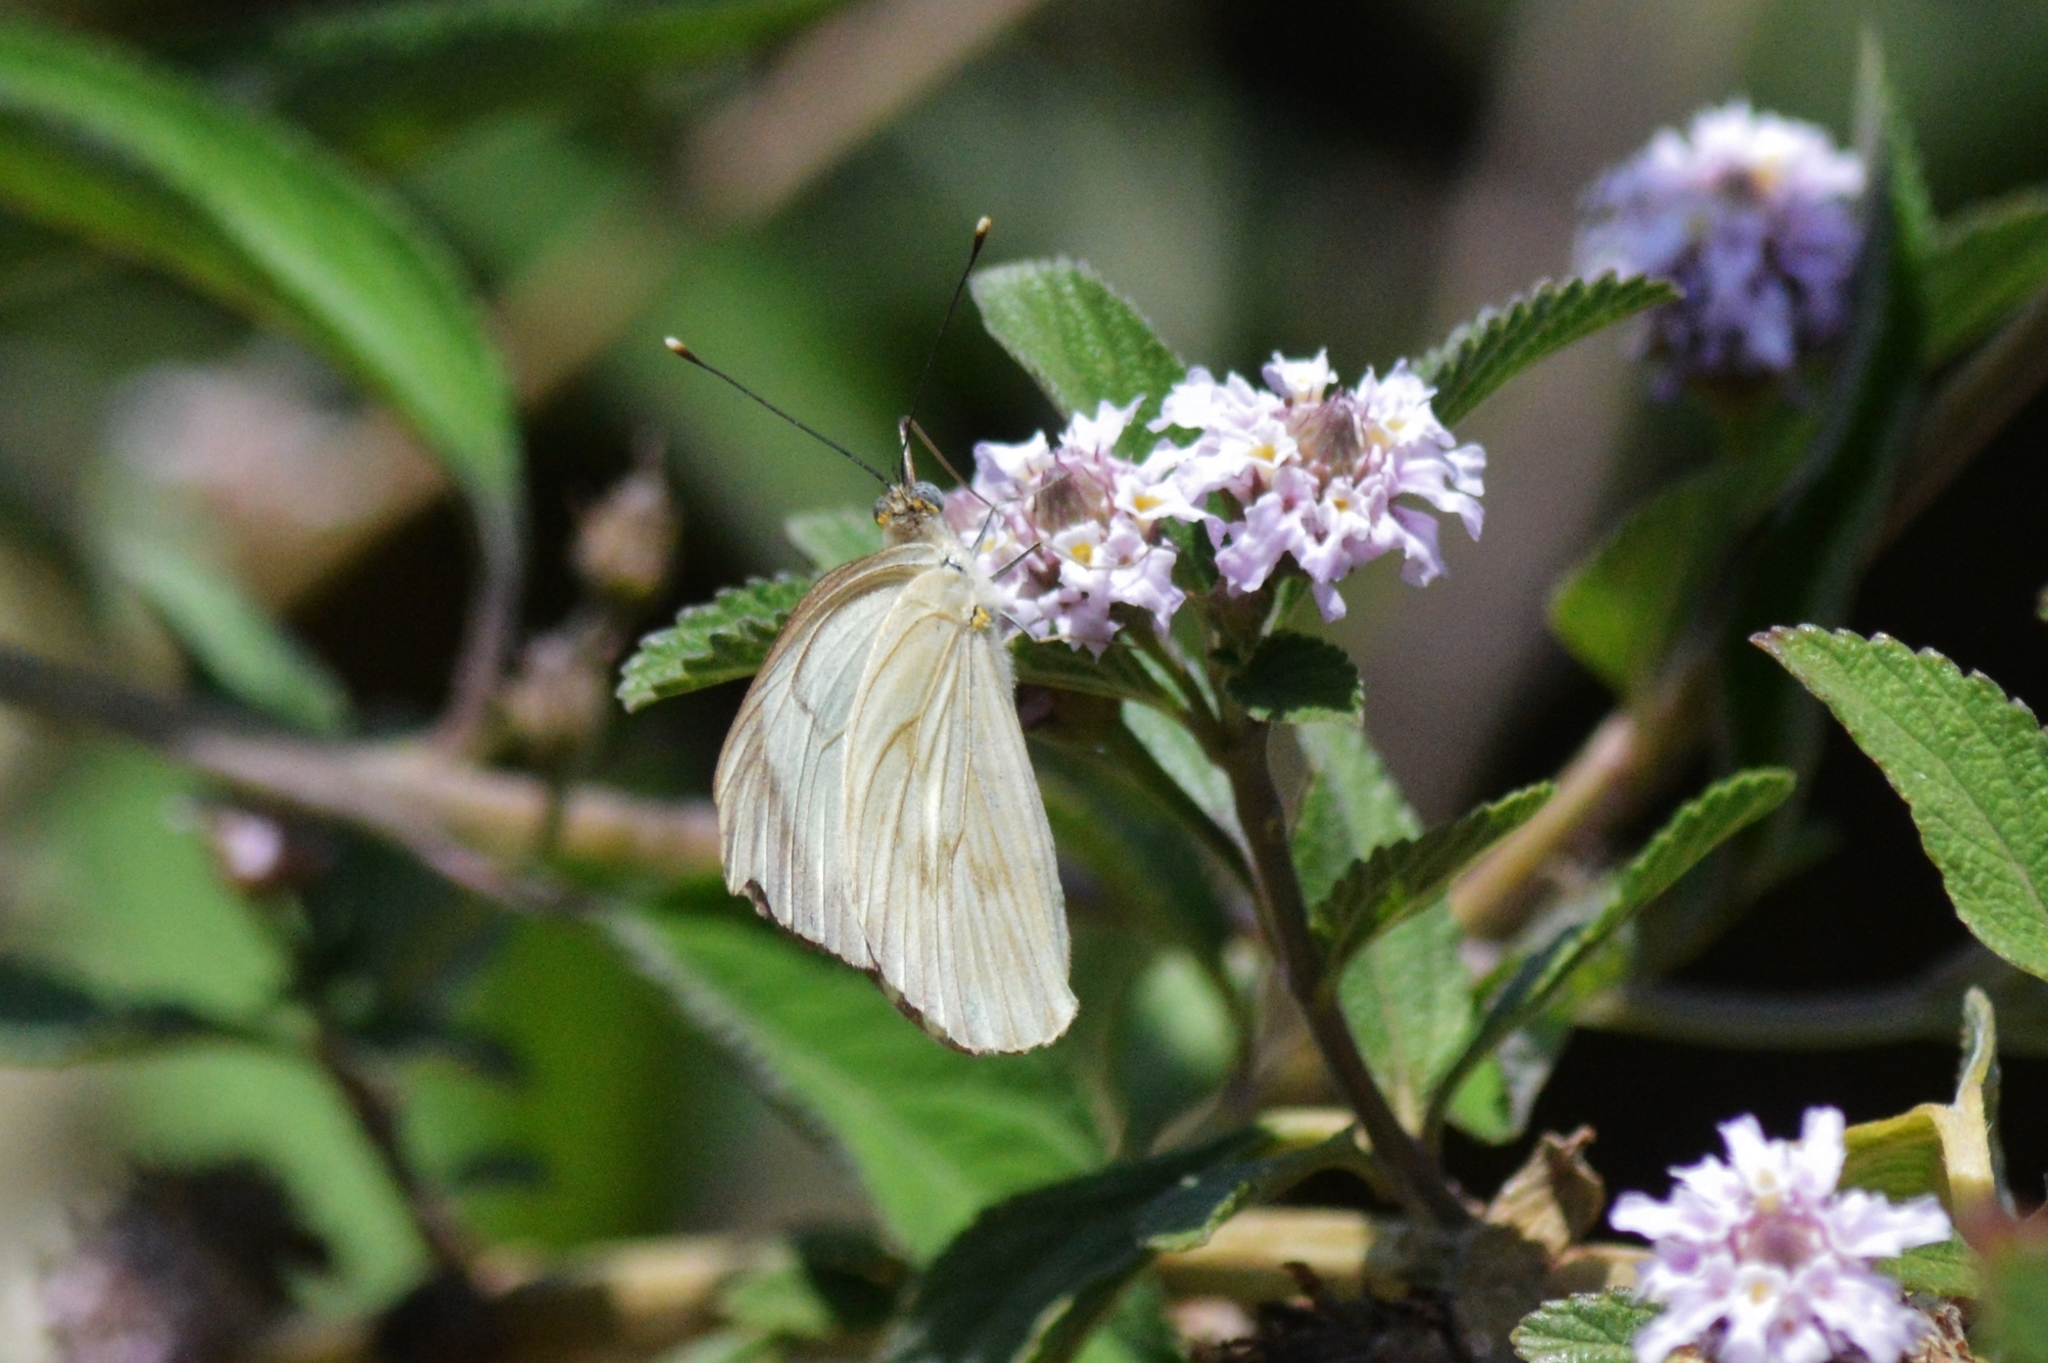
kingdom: Animalia
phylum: Arthropoda
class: Insecta
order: Lepidoptera
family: Pieridae
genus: Ascia
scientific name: Ascia monuste
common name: Great southern white
